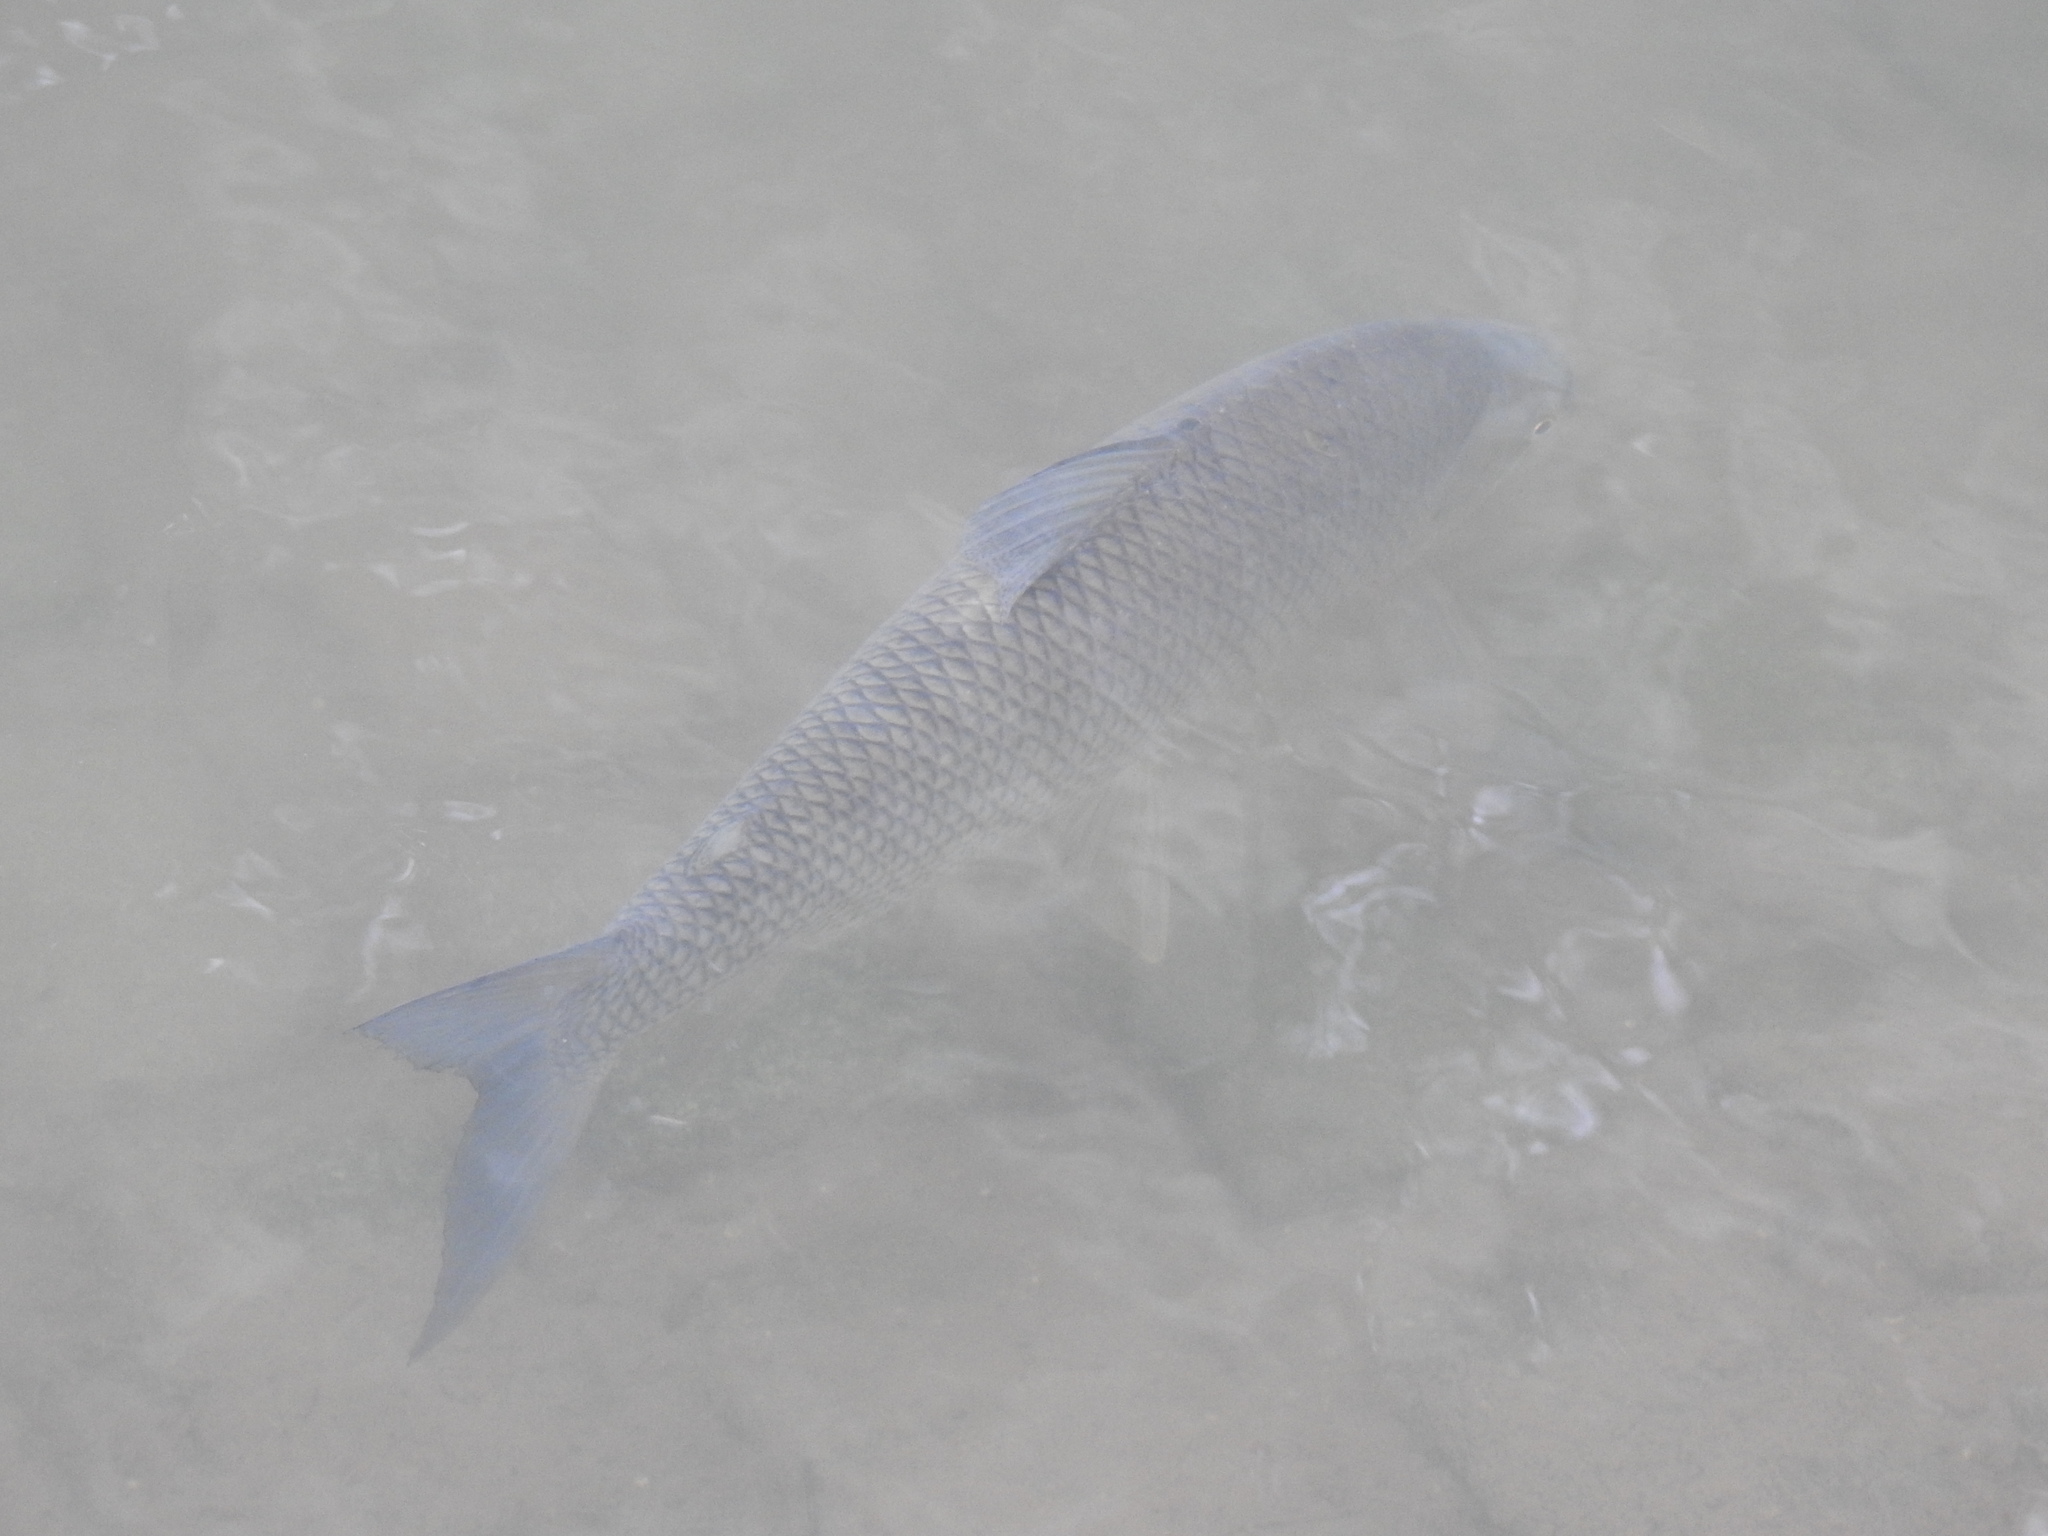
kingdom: Animalia
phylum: Chordata
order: Characiformes
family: Prochilodontidae
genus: Prochilodus
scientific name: Prochilodus lineatus
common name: Curimbata
